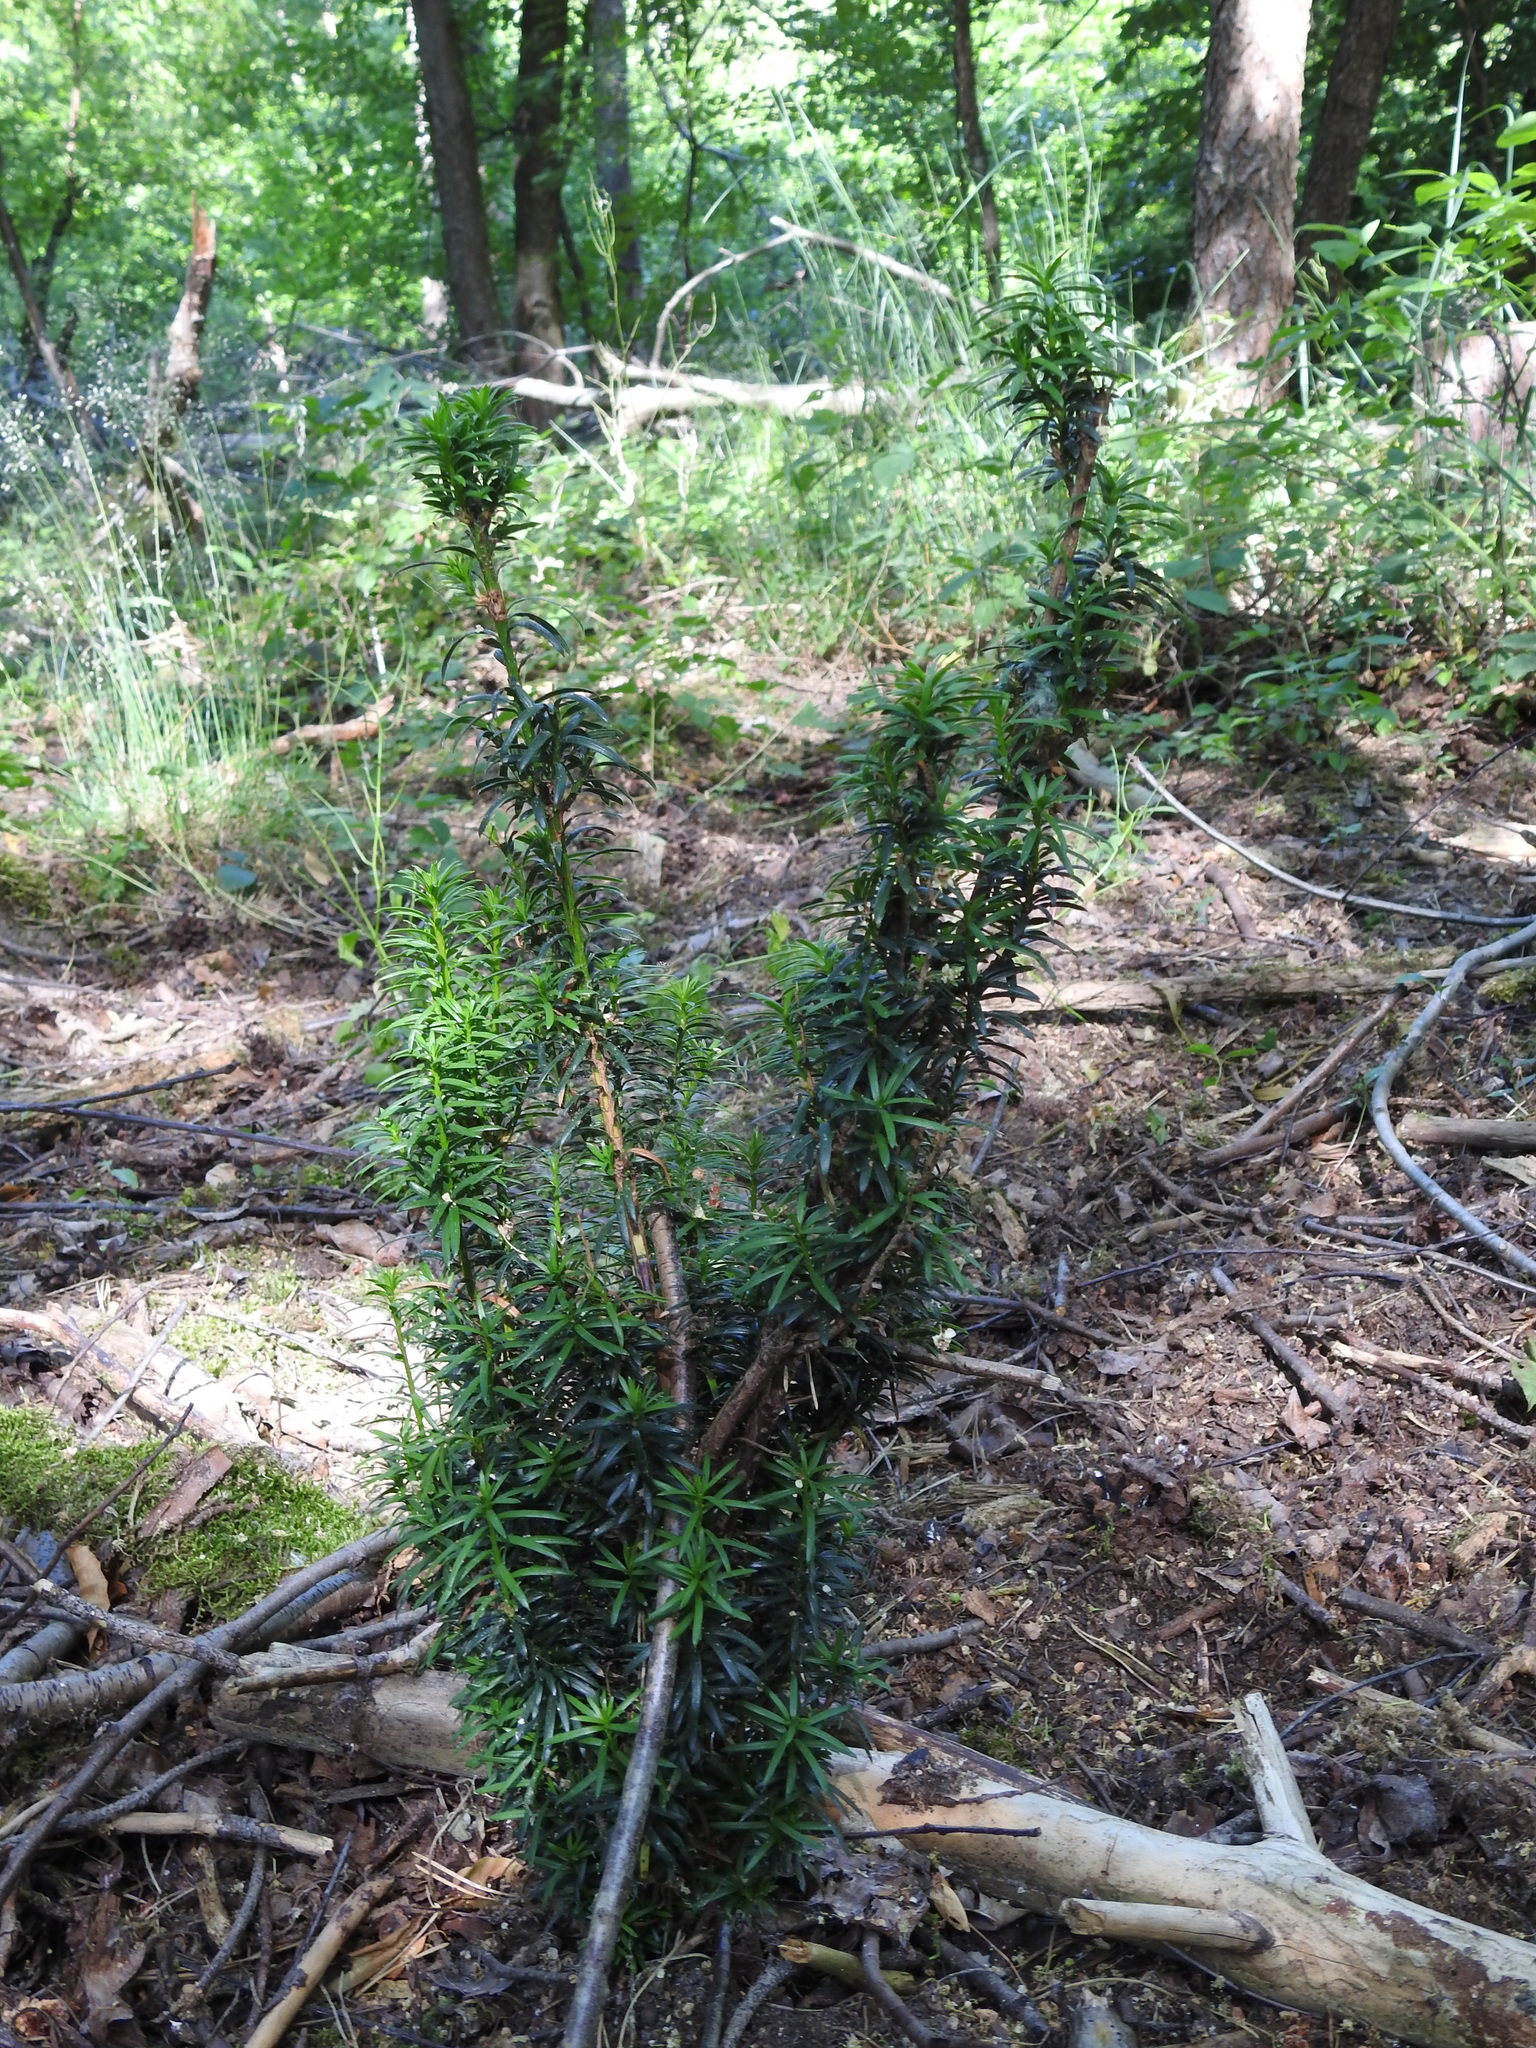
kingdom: Plantae
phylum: Tracheophyta
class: Pinopsida
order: Pinales
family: Taxaceae
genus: Taxus
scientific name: Taxus baccata
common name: Yew
